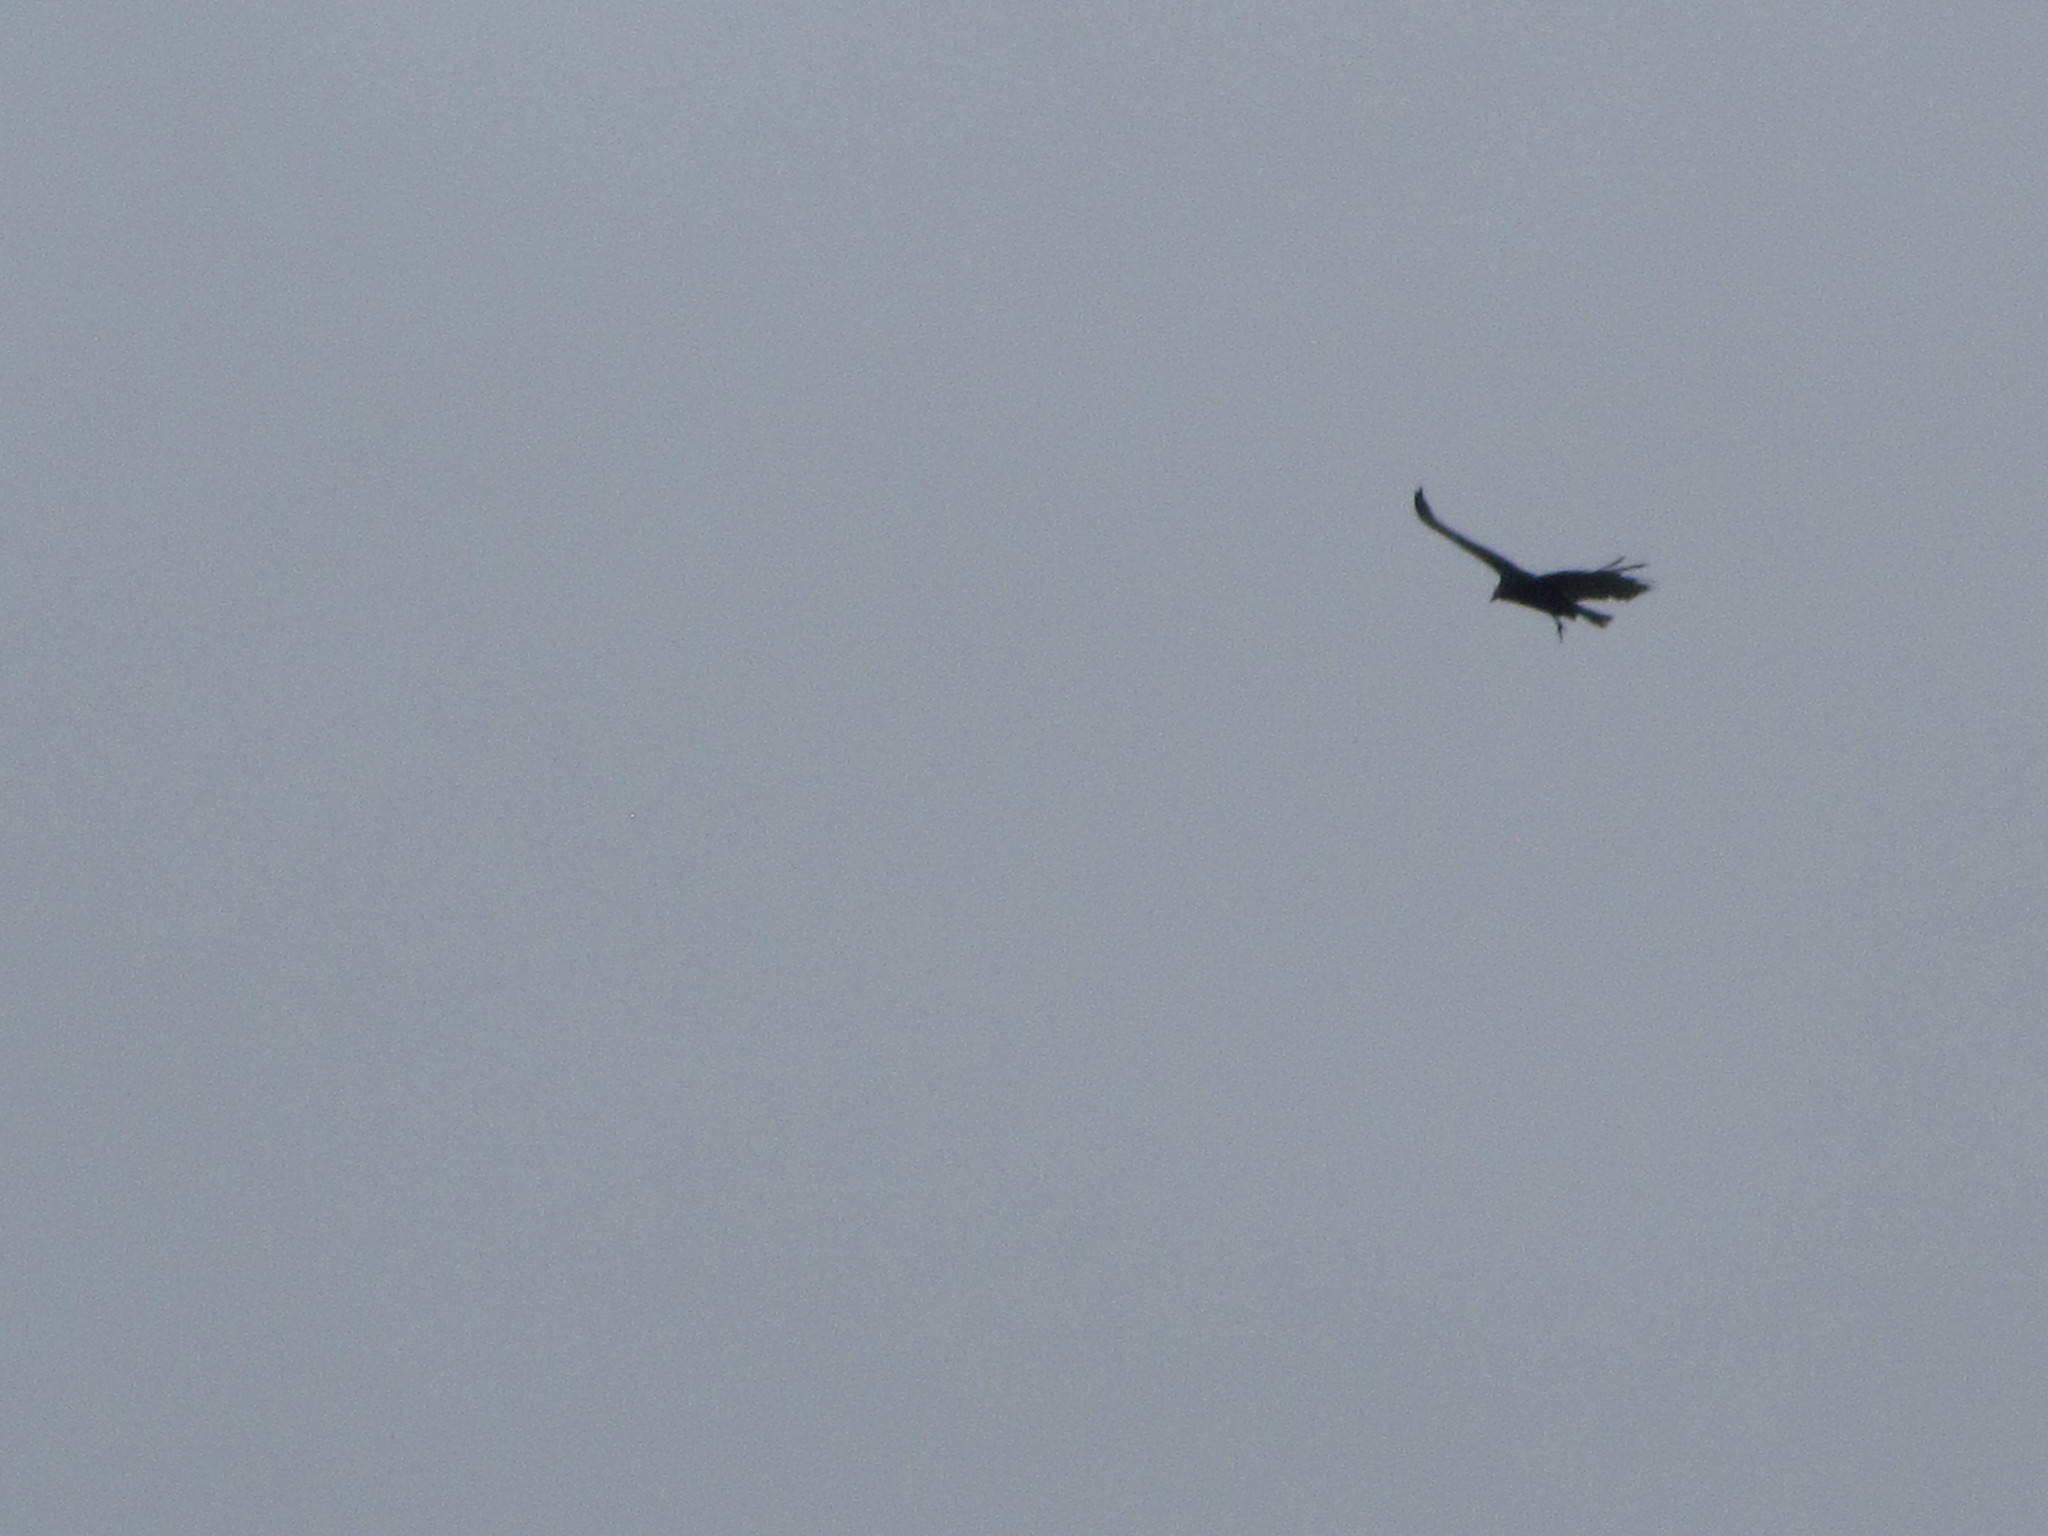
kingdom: Animalia
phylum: Chordata
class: Aves
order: Accipitriformes
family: Cathartidae
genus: Cathartes
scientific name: Cathartes aura
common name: Turkey vulture
